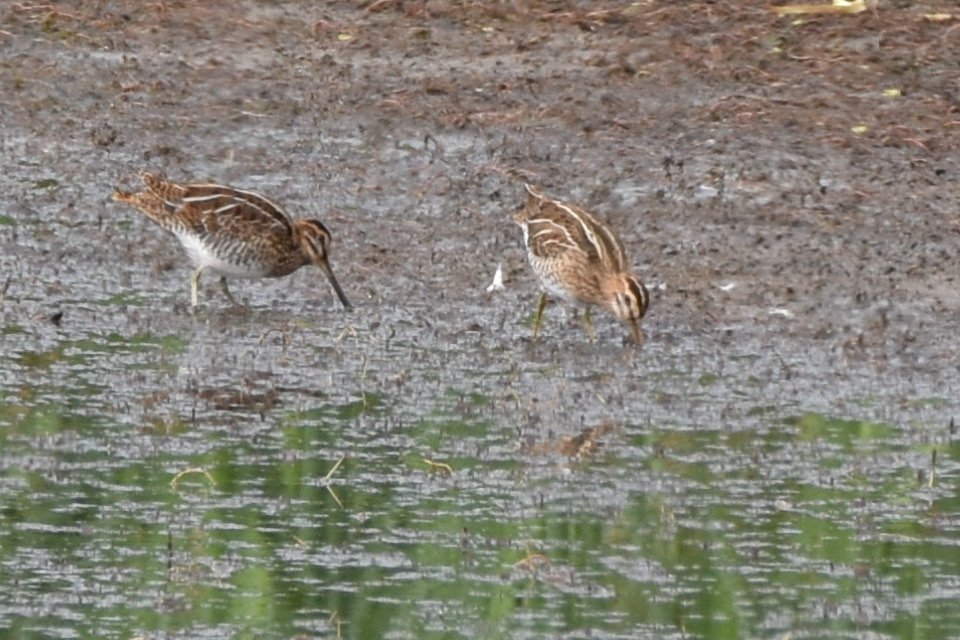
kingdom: Animalia
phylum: Chordata
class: Aves
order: Charadriiformes
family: Scolopacidae
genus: Gallinago
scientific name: Gallinago gallinago
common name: Common snipe
